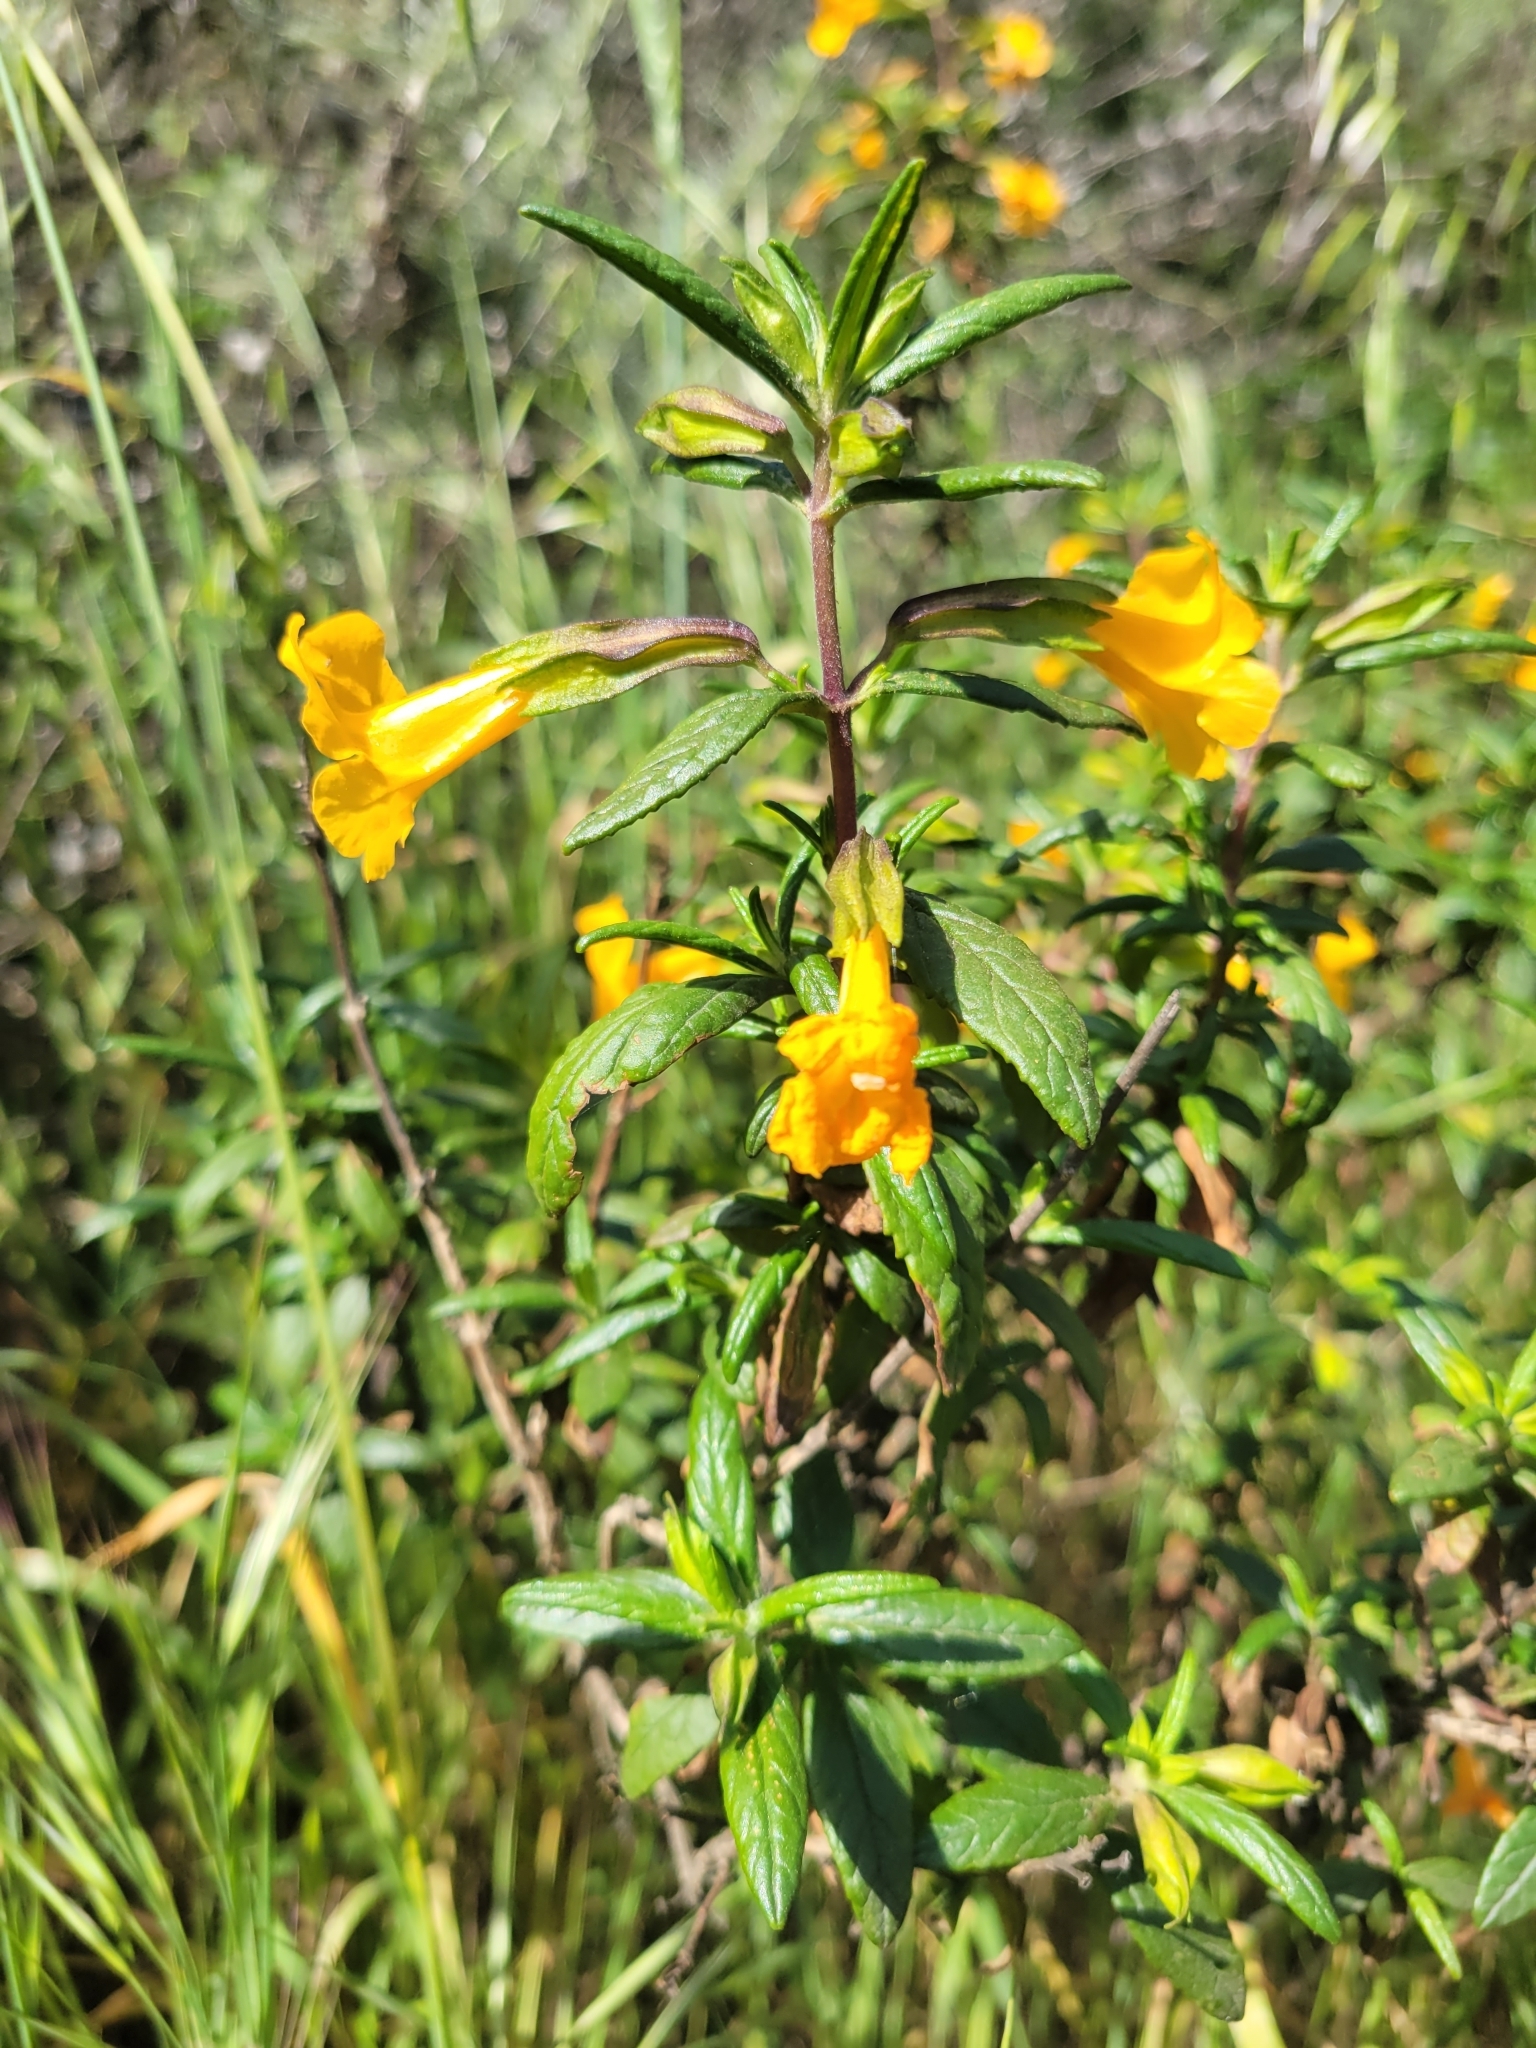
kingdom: Plantae
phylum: Tracheophyta
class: Magnoliopsida
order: Lamiales
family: Phrymaceae
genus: Diplacus
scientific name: Diplacus aurantiacus
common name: Bush monkey-flower
